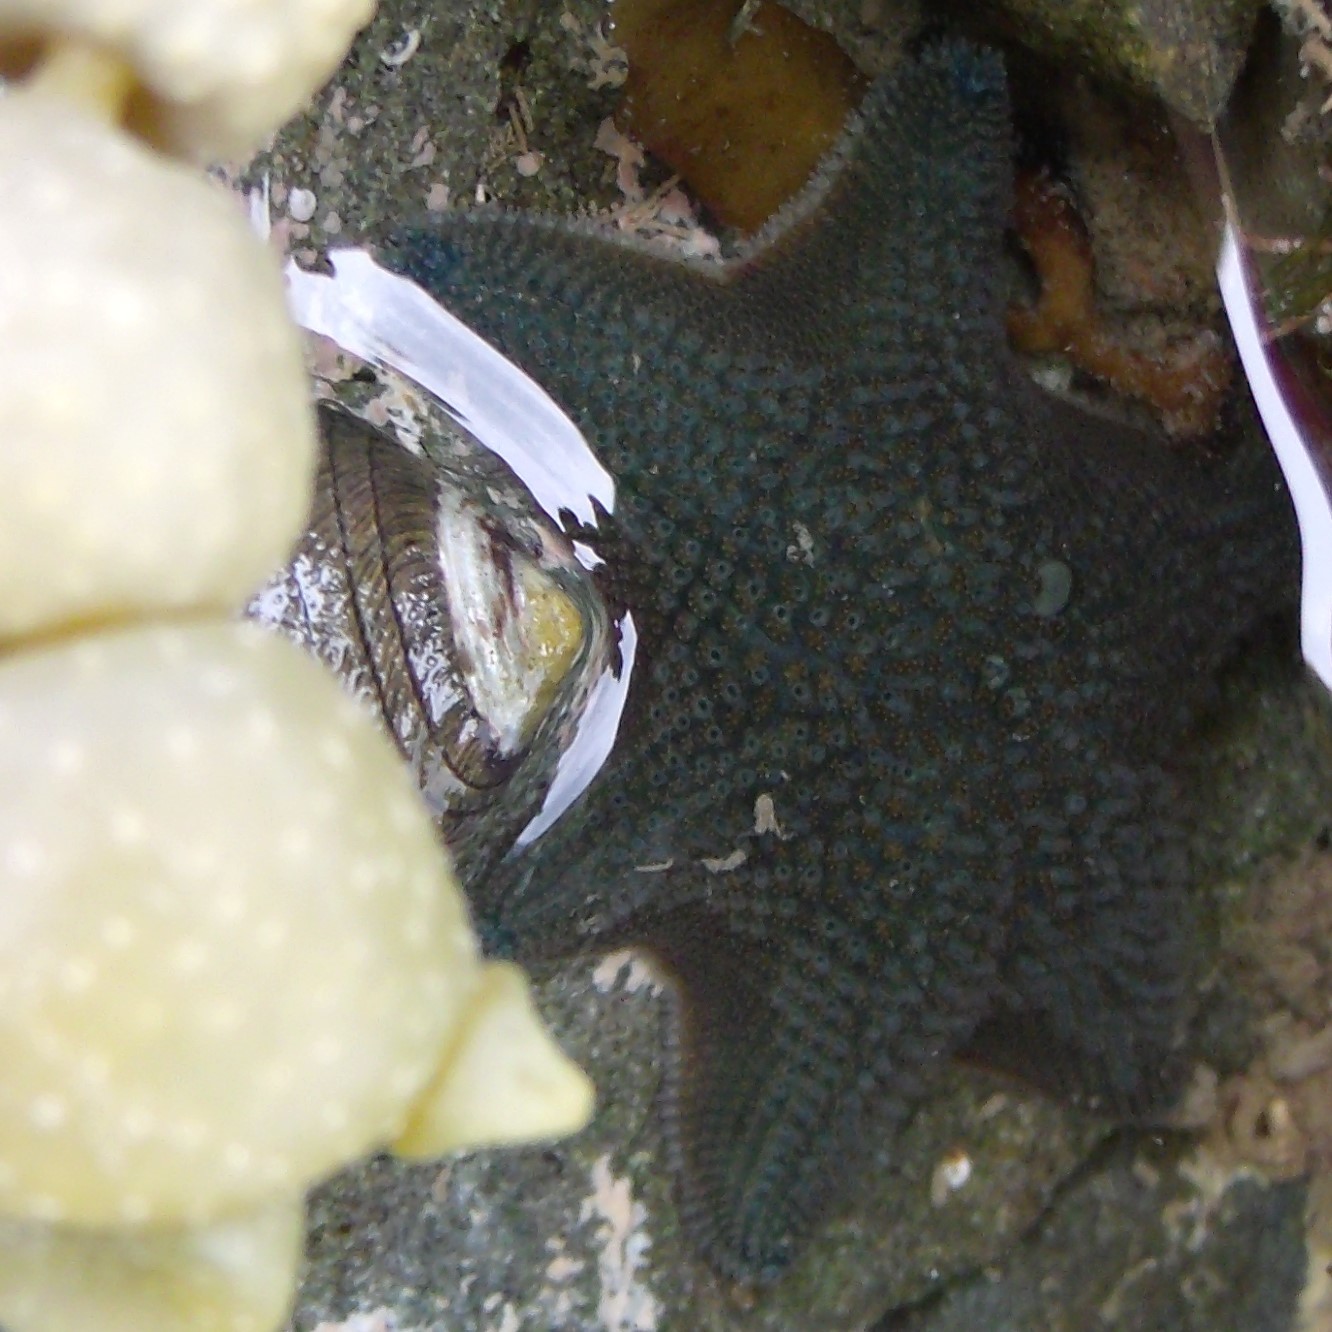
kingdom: Animalia
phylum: Echinodermata
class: Asteroidea
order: Valvatida
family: Asterinidae
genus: Patiriella
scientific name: Patiriella regularis
